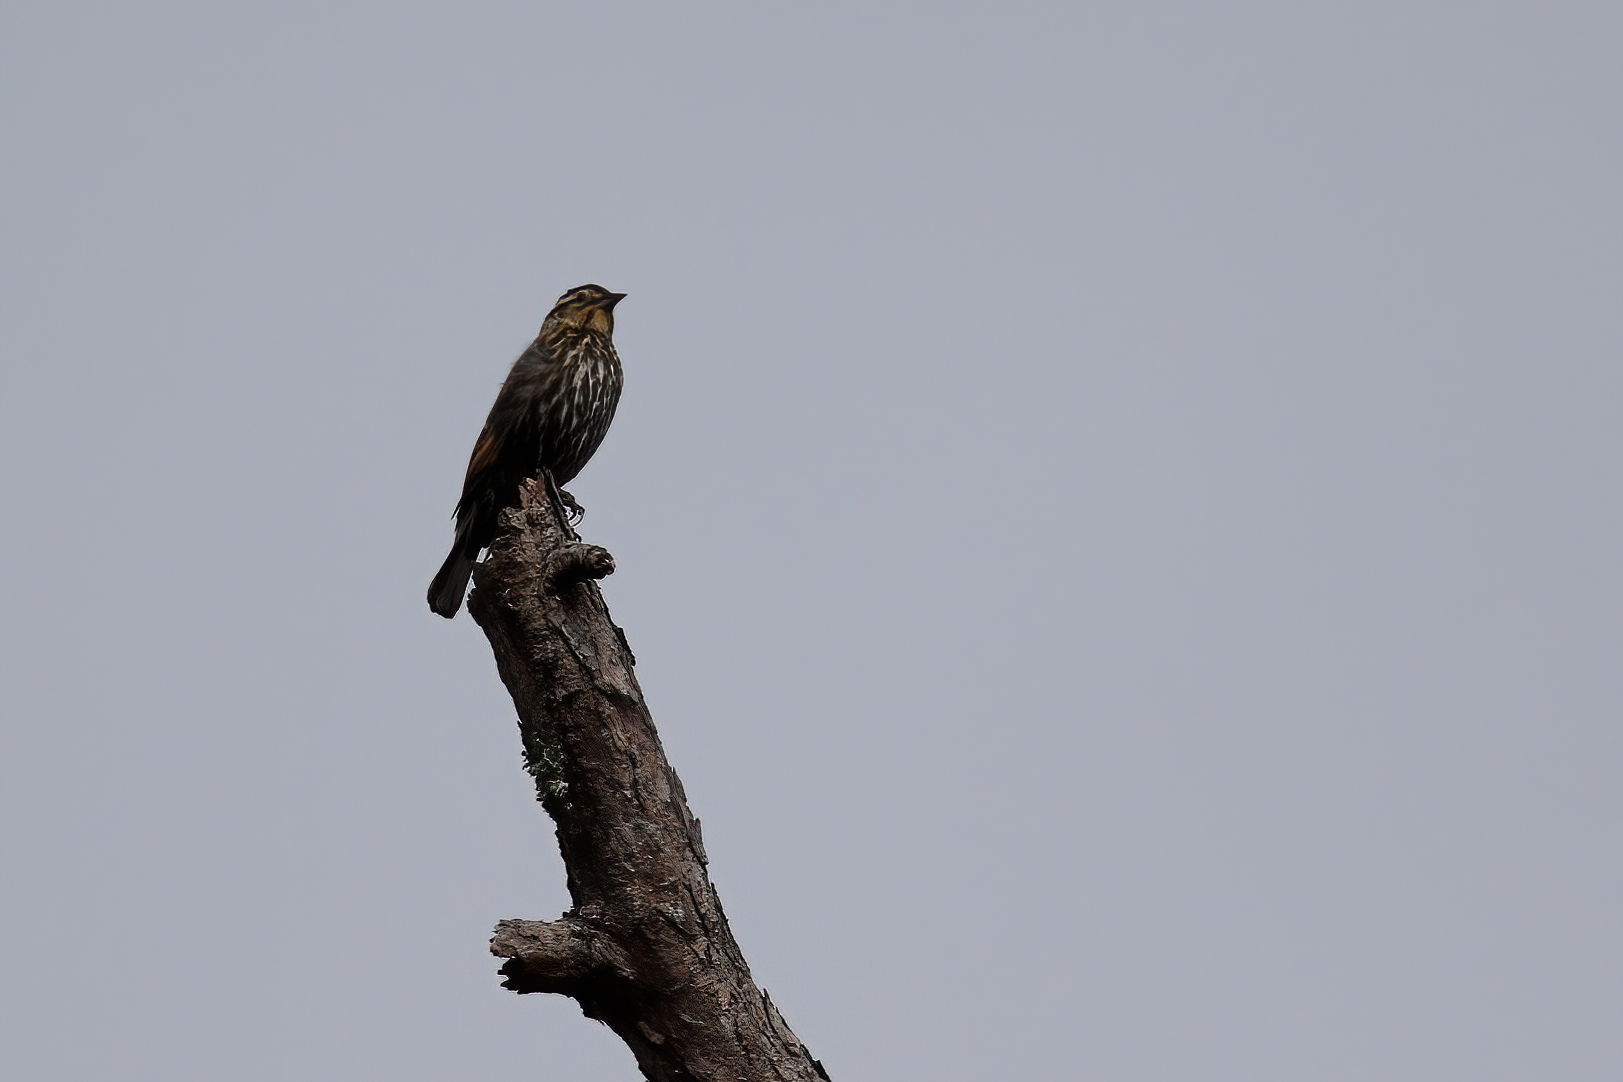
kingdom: Animalia
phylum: Chordata
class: Aves
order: Passeriformes
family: Icteridae
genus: Agelaius
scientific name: Agelaius phoeniceus
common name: Red-winged blackbird
